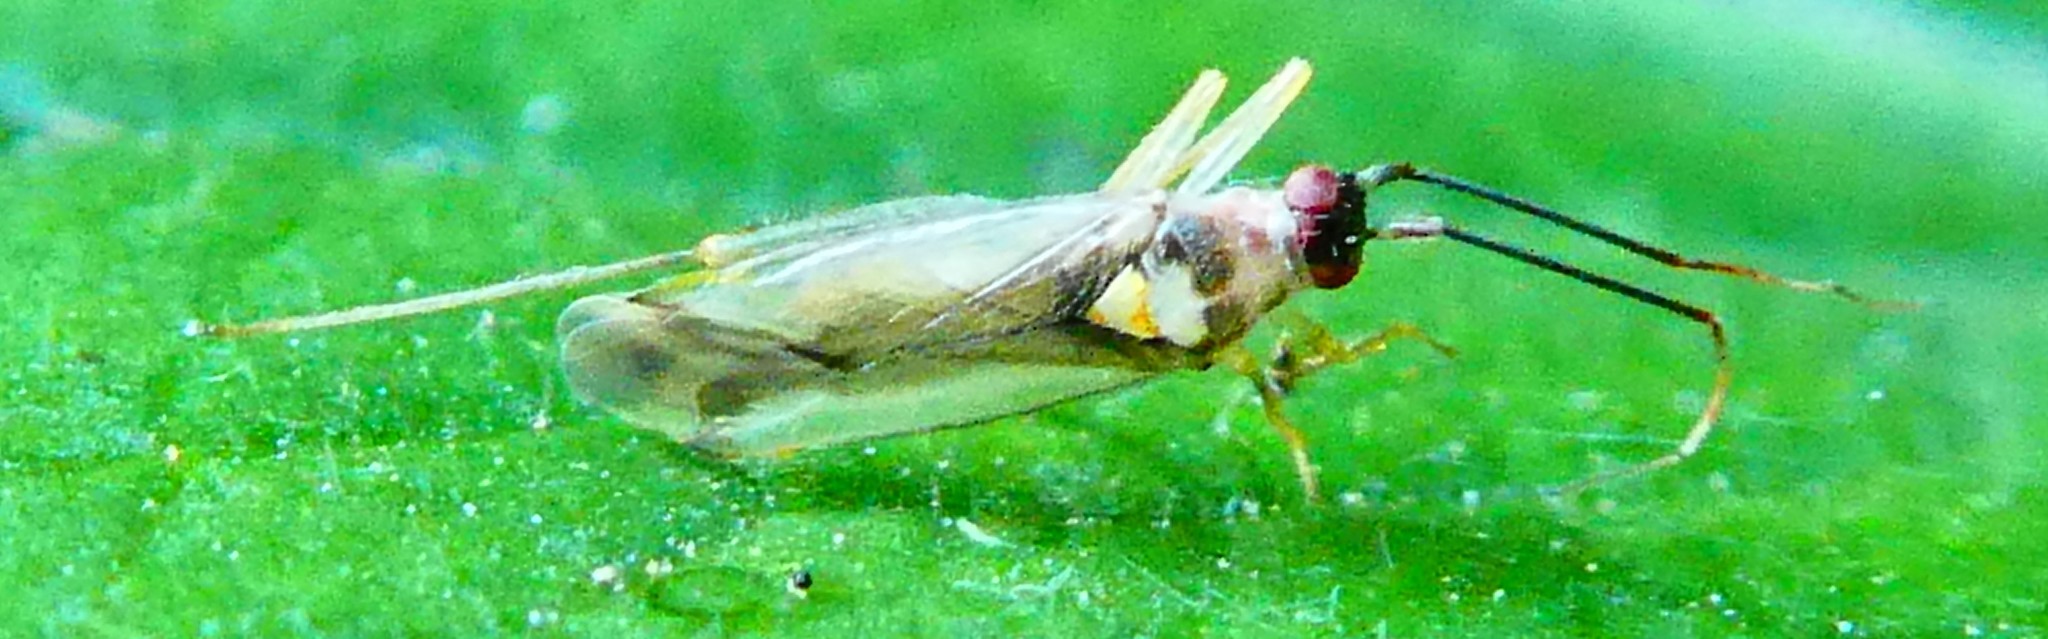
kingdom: Animalia
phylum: Arthropoda
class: Insecta
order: Hemiptera
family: Miridae
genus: Campyloneura
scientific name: Campyloneura virgula
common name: Predatory bug
